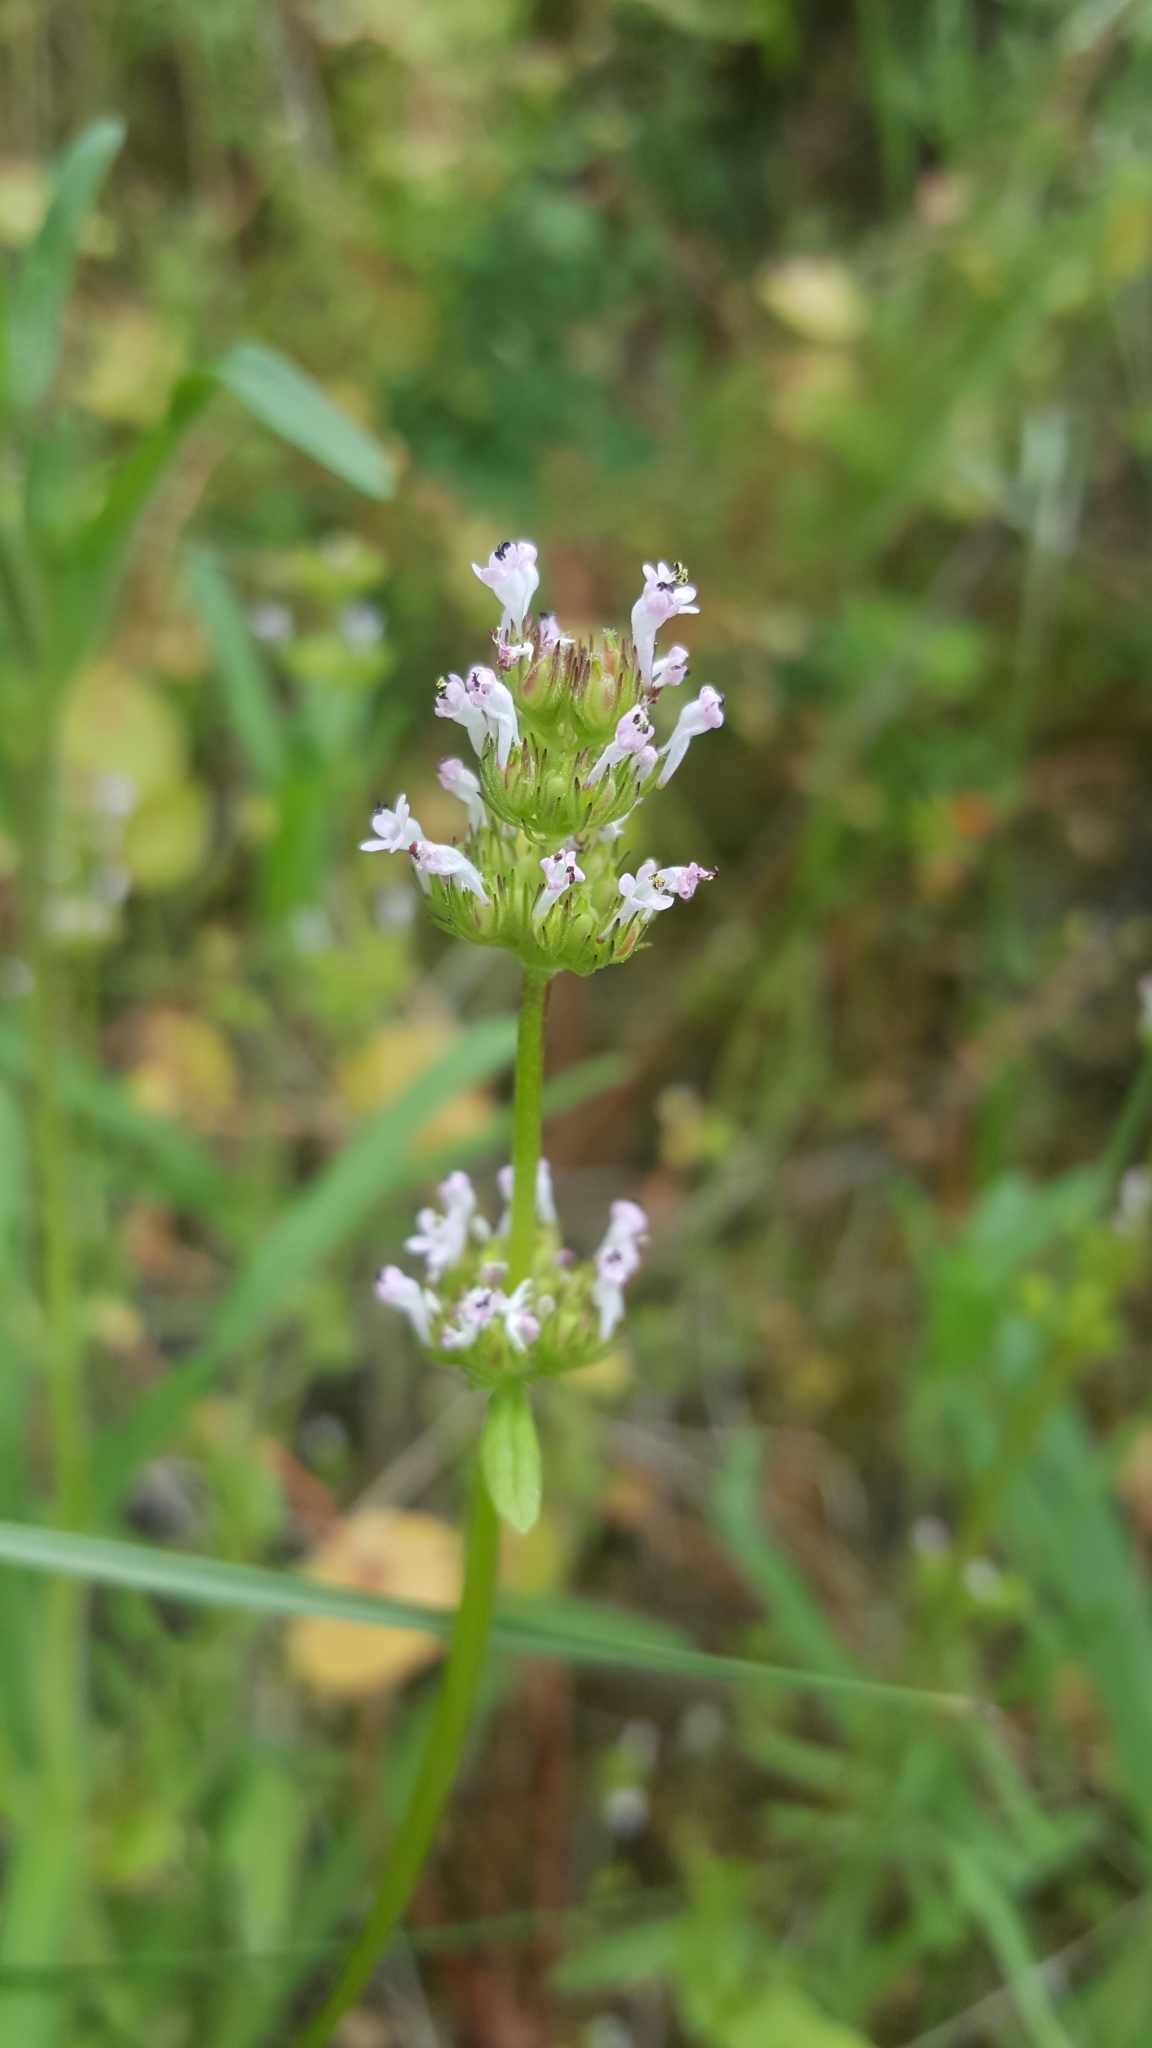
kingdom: Plantae
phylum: Tracheophyta
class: Magnoliopsida
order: Dipsacales
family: Caprifoliaceae
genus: Plectritis
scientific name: Plectritis macroptera
